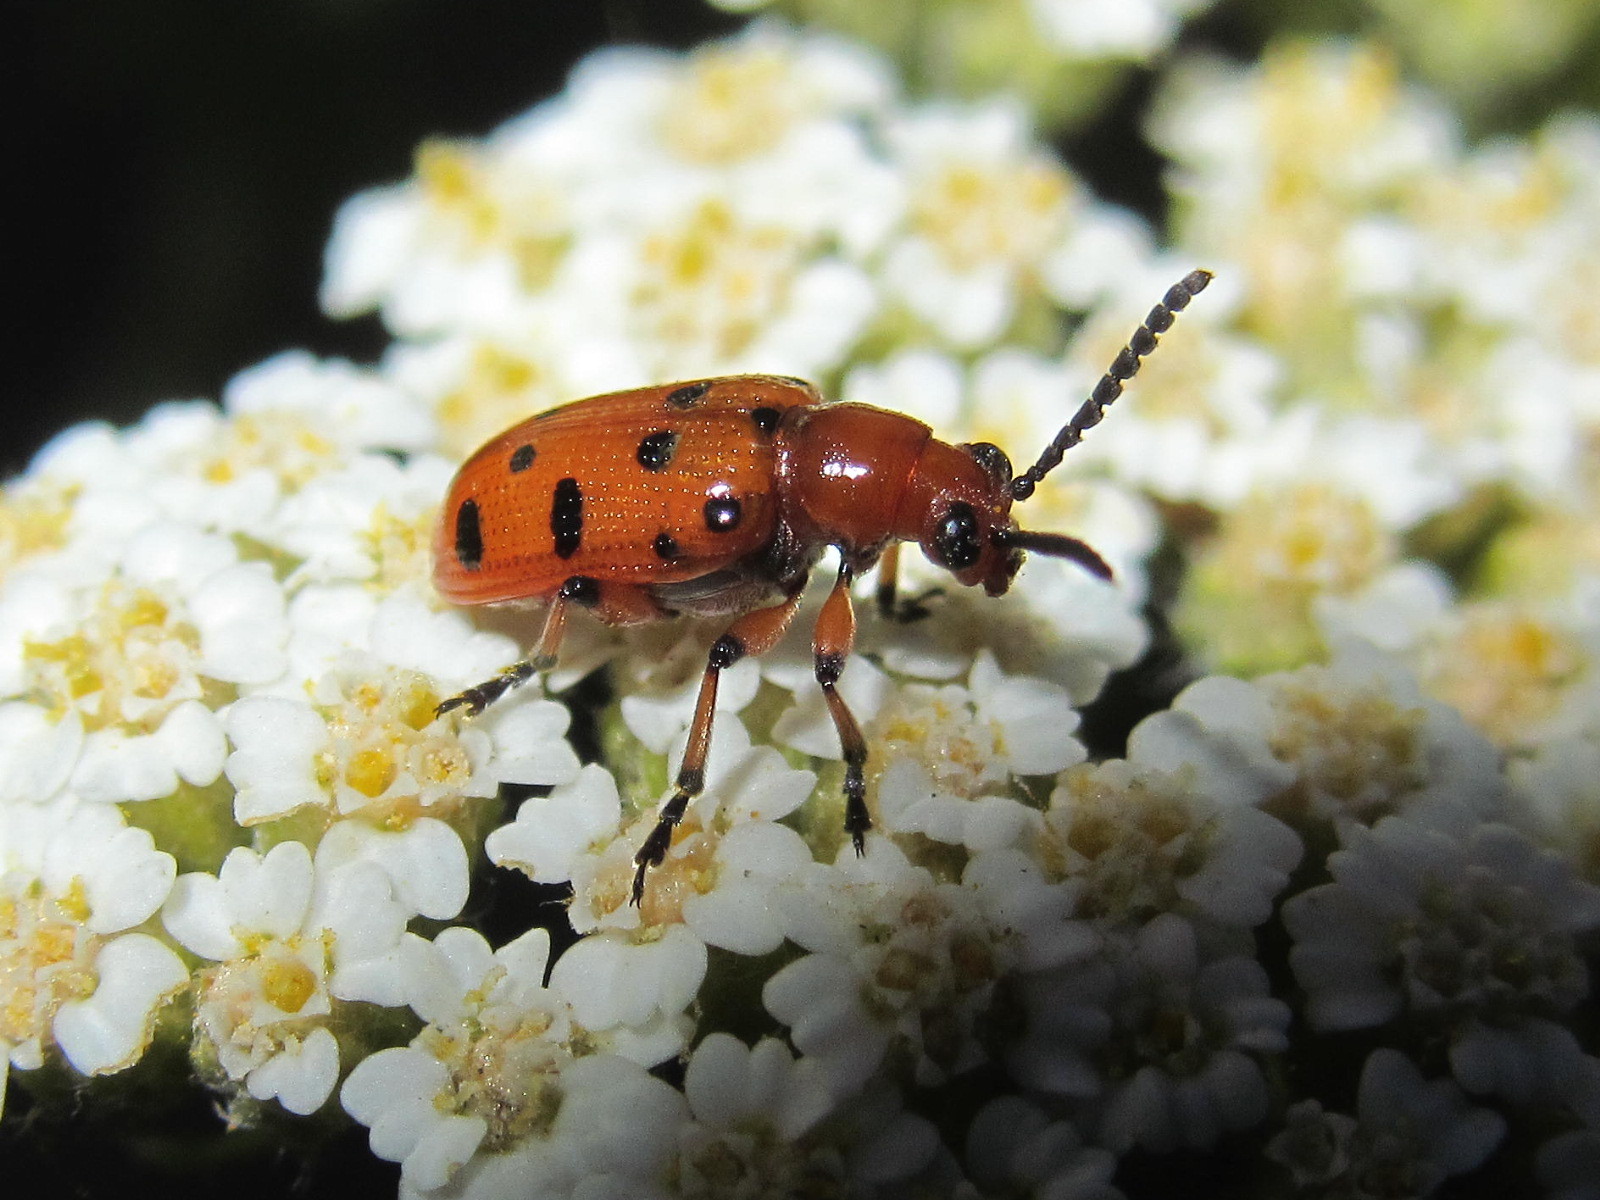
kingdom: Animalia
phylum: Arthropoda
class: Insecta
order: Coleoptera
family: Chrysomelidae
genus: Crioceris
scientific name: Crioceris duodecimpunctata
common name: Twelve-spotted asparagus beetle
